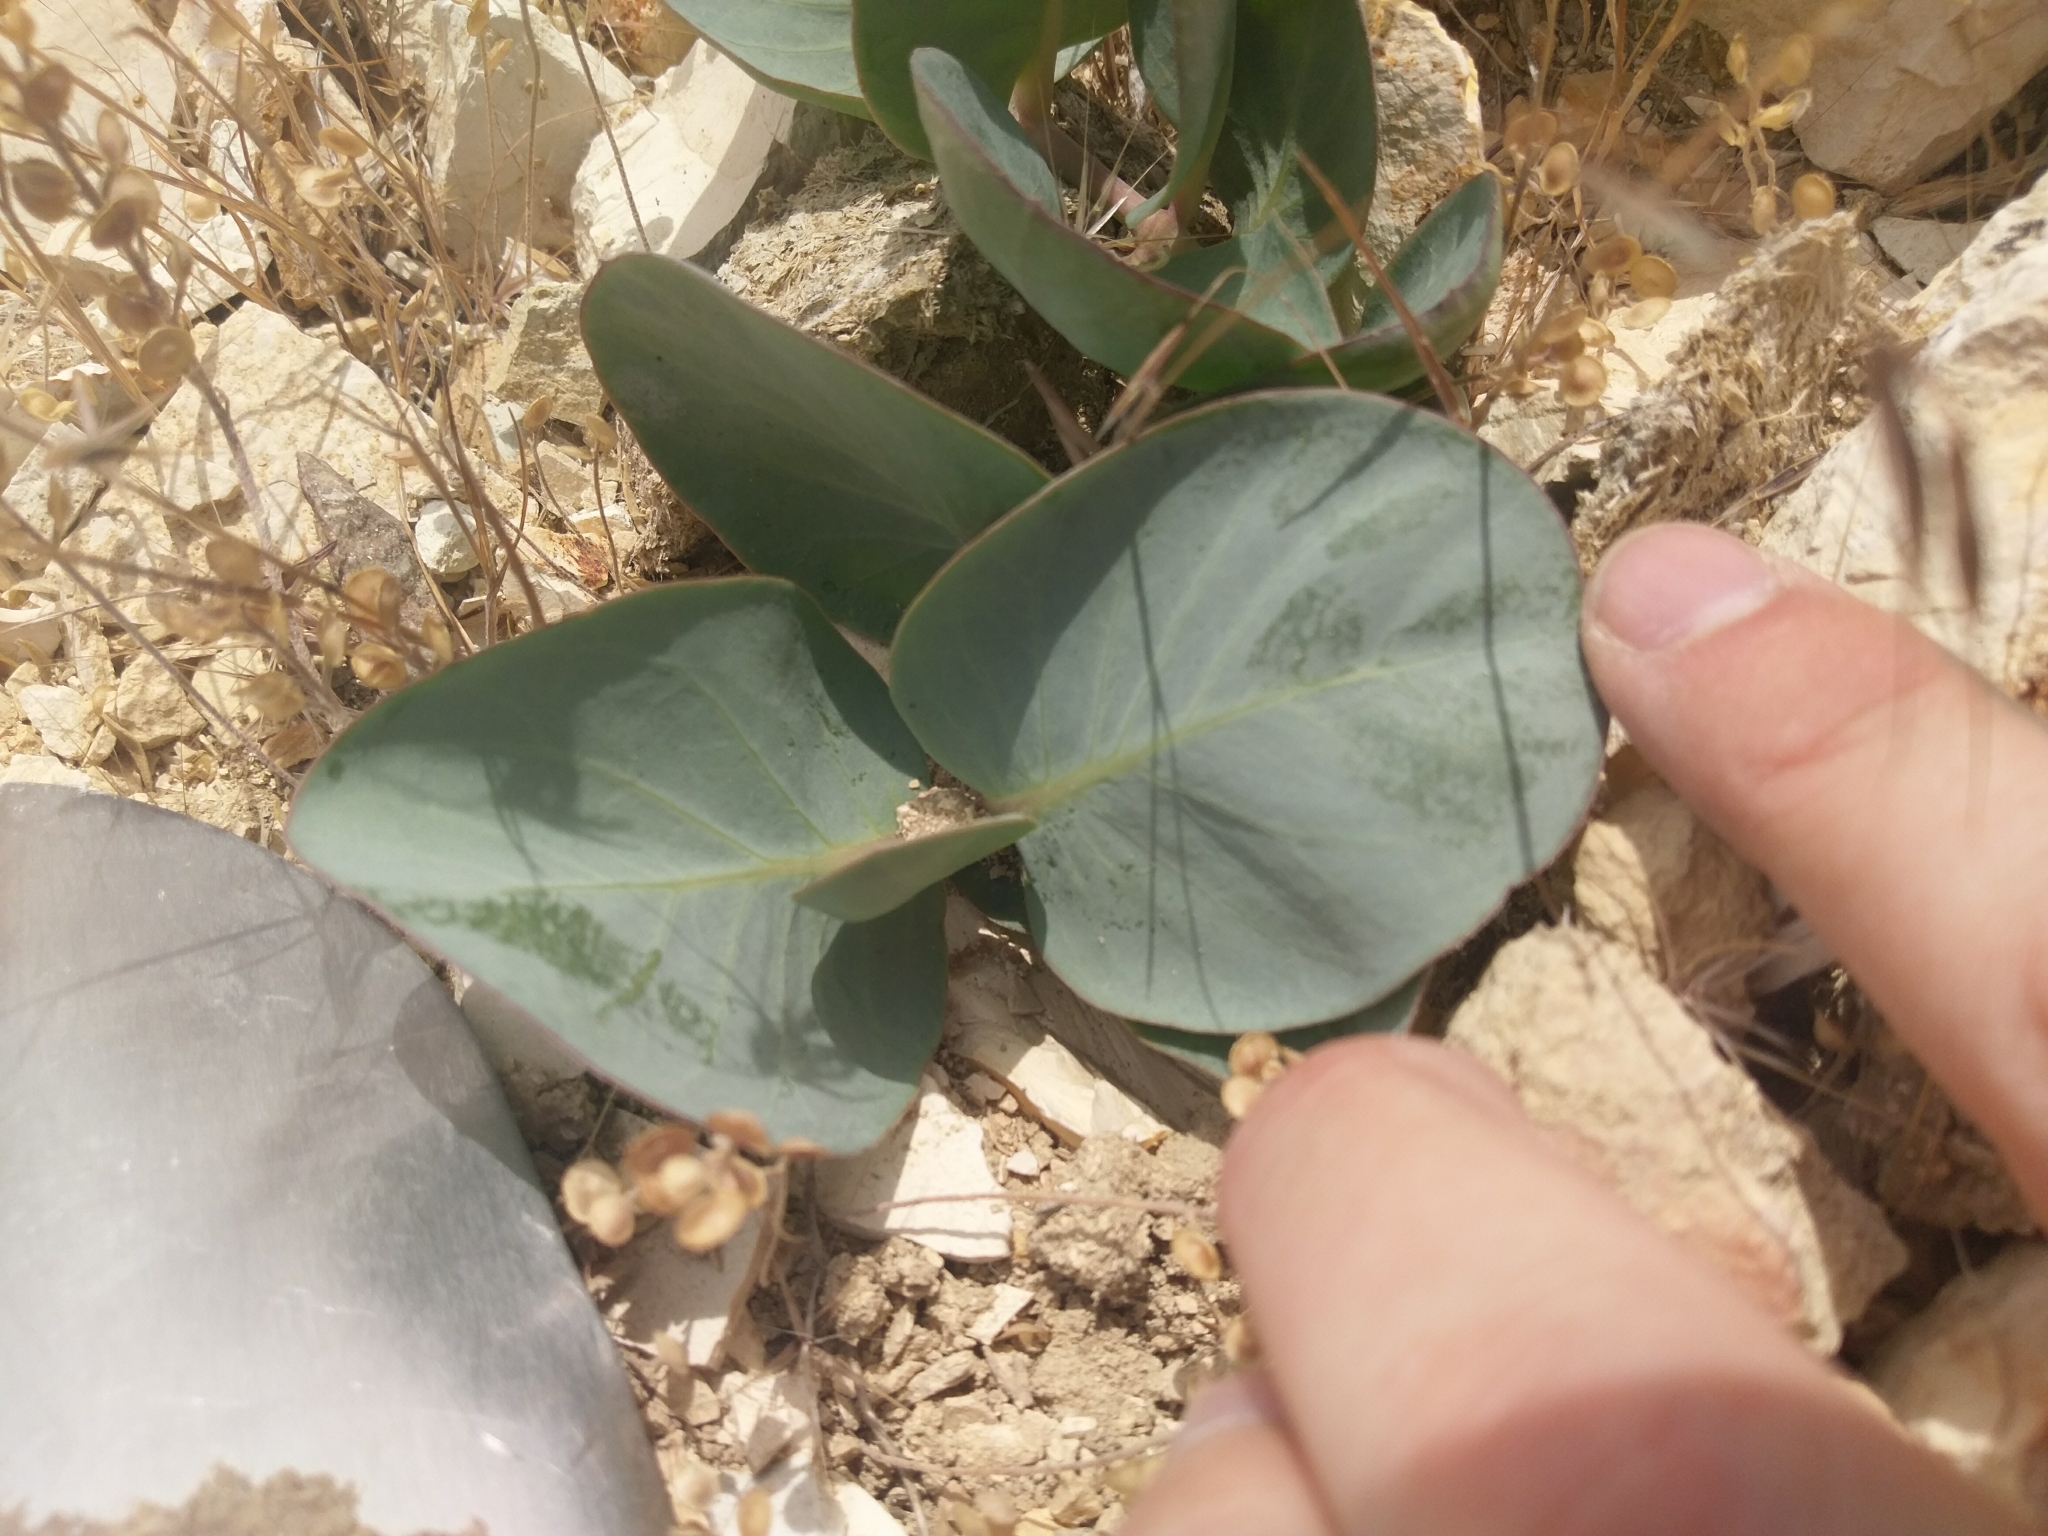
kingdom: Plantae
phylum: Tracheophyta
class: Magnoliopsida
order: Gentianales
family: Apocynaceae
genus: Asclepias
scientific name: Asclepias cryptoceras
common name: Humboldt mountains milkweed
